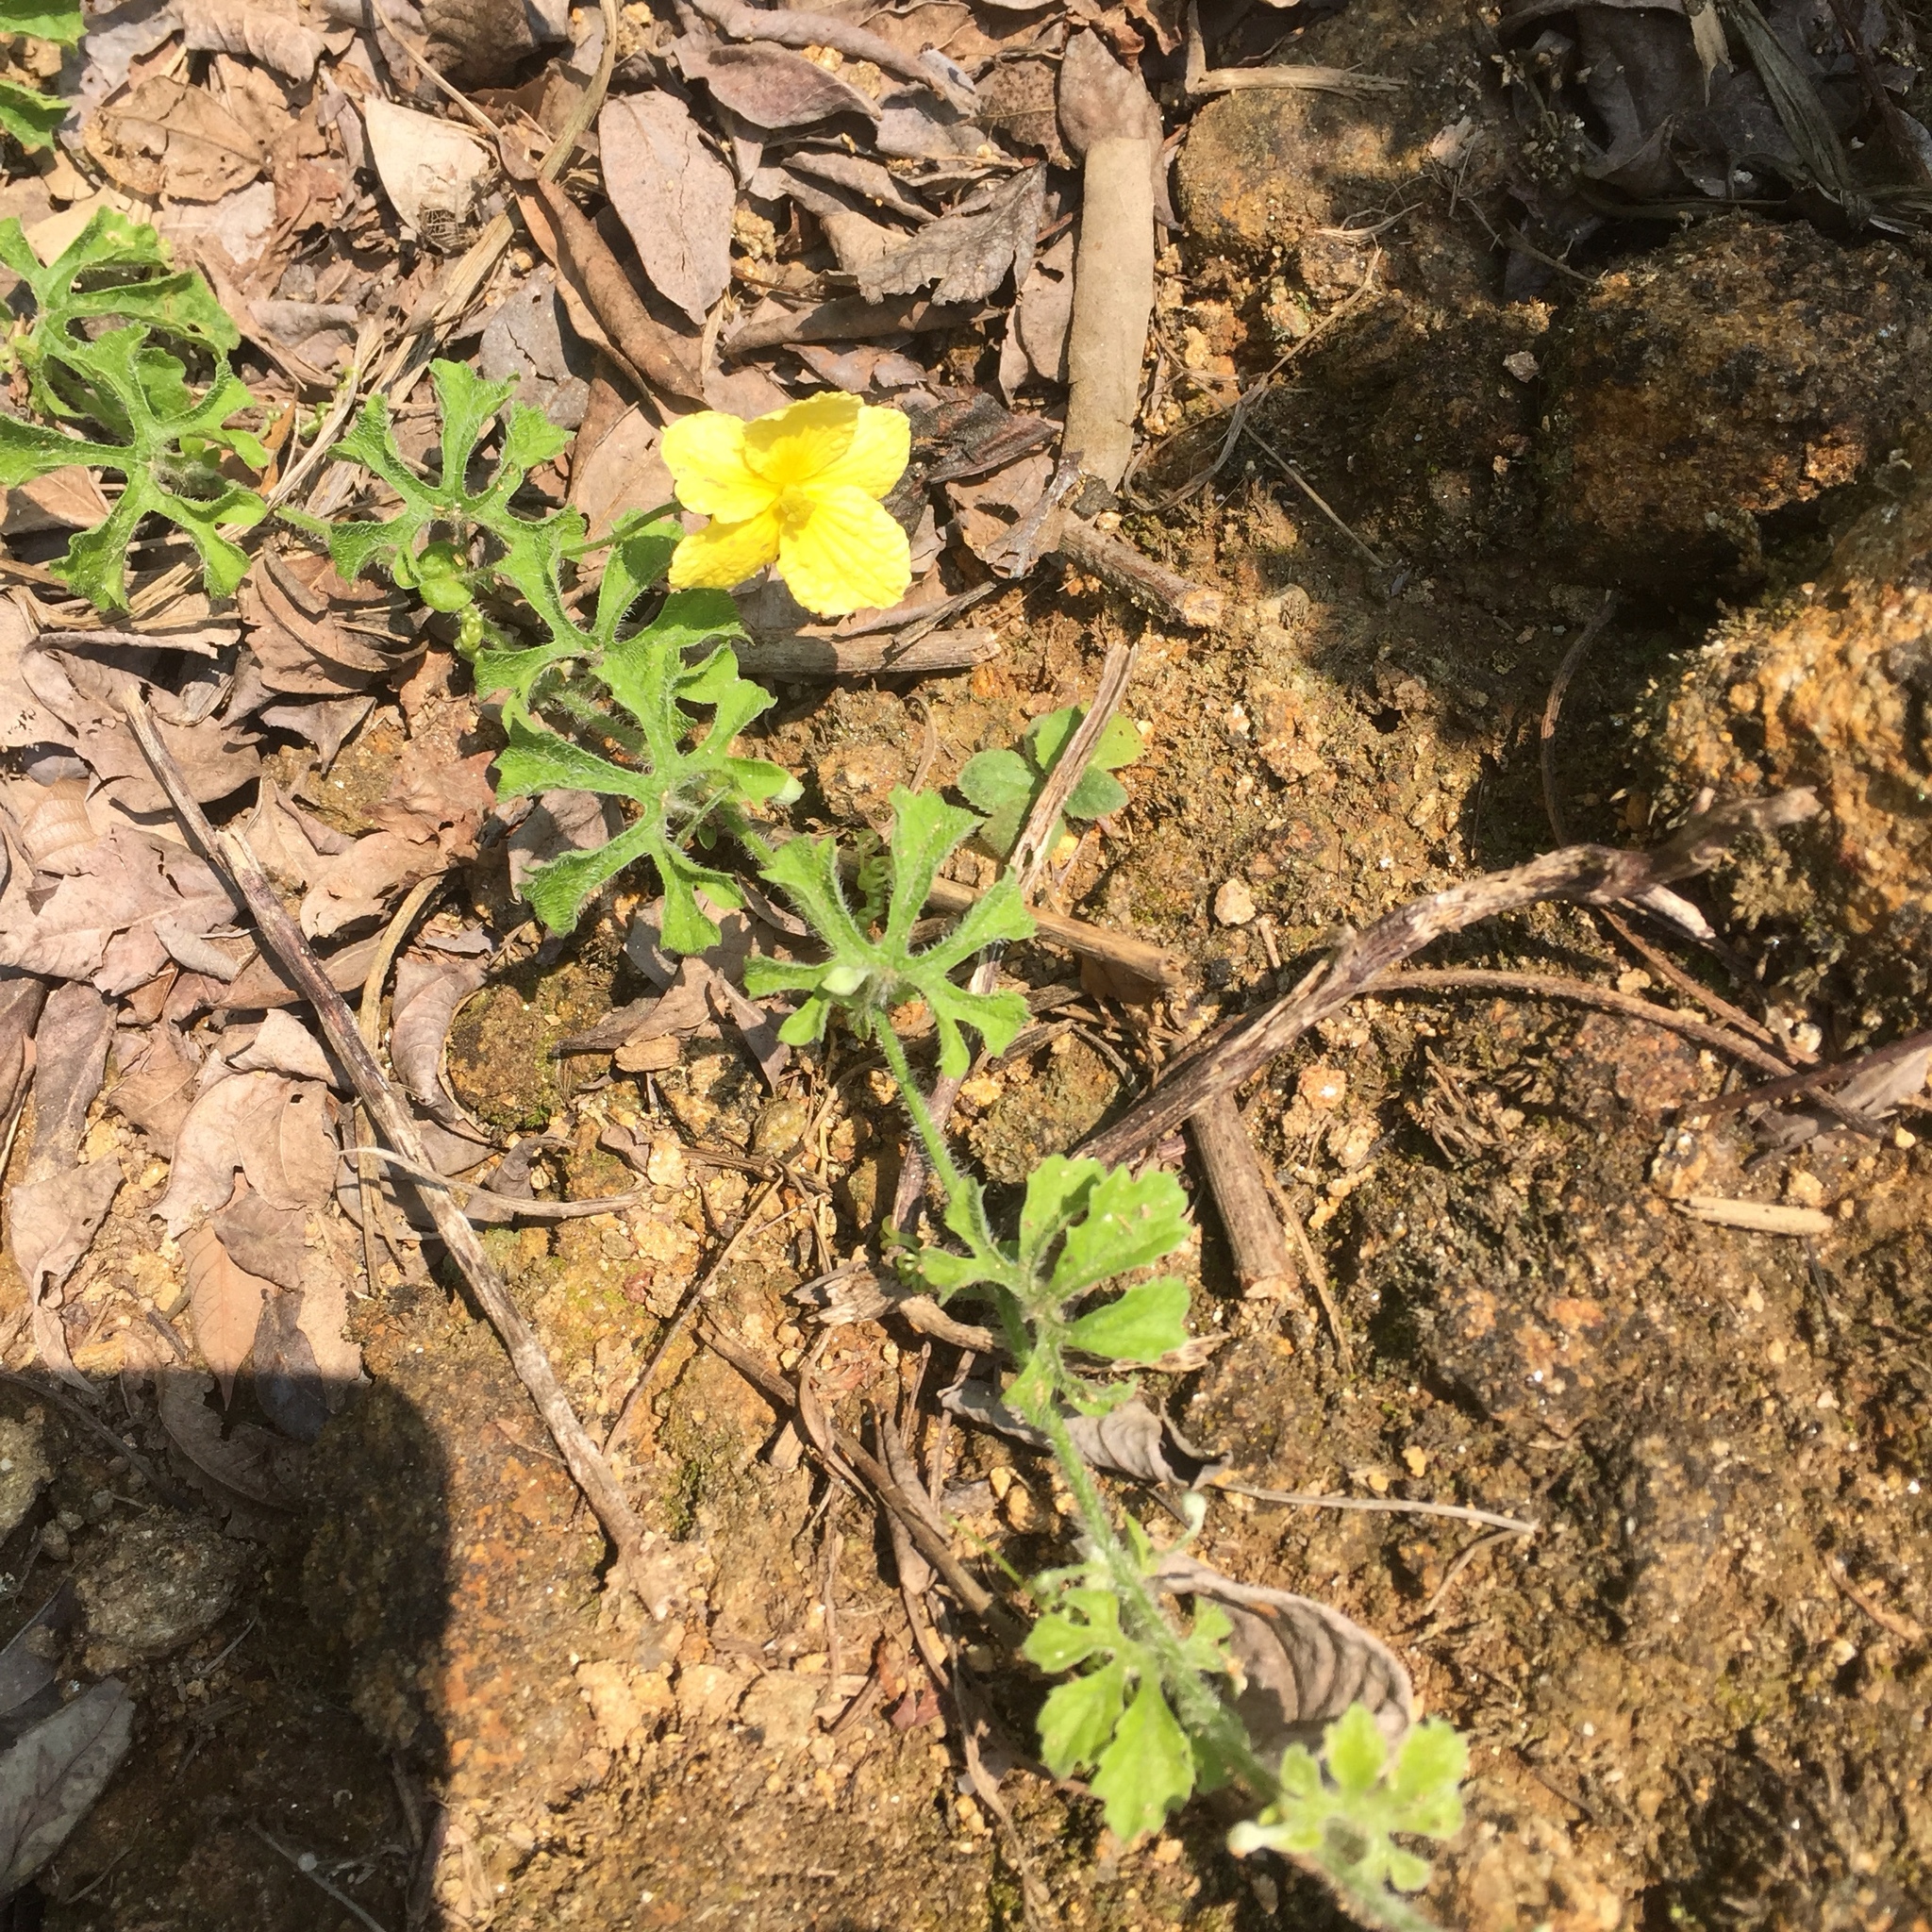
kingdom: Plantae
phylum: Tracheophyta
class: Magnoliopsida
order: Cucurbitales
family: Cucurbitaceae
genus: Momordica
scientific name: Momordica charantia
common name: Balsampear
